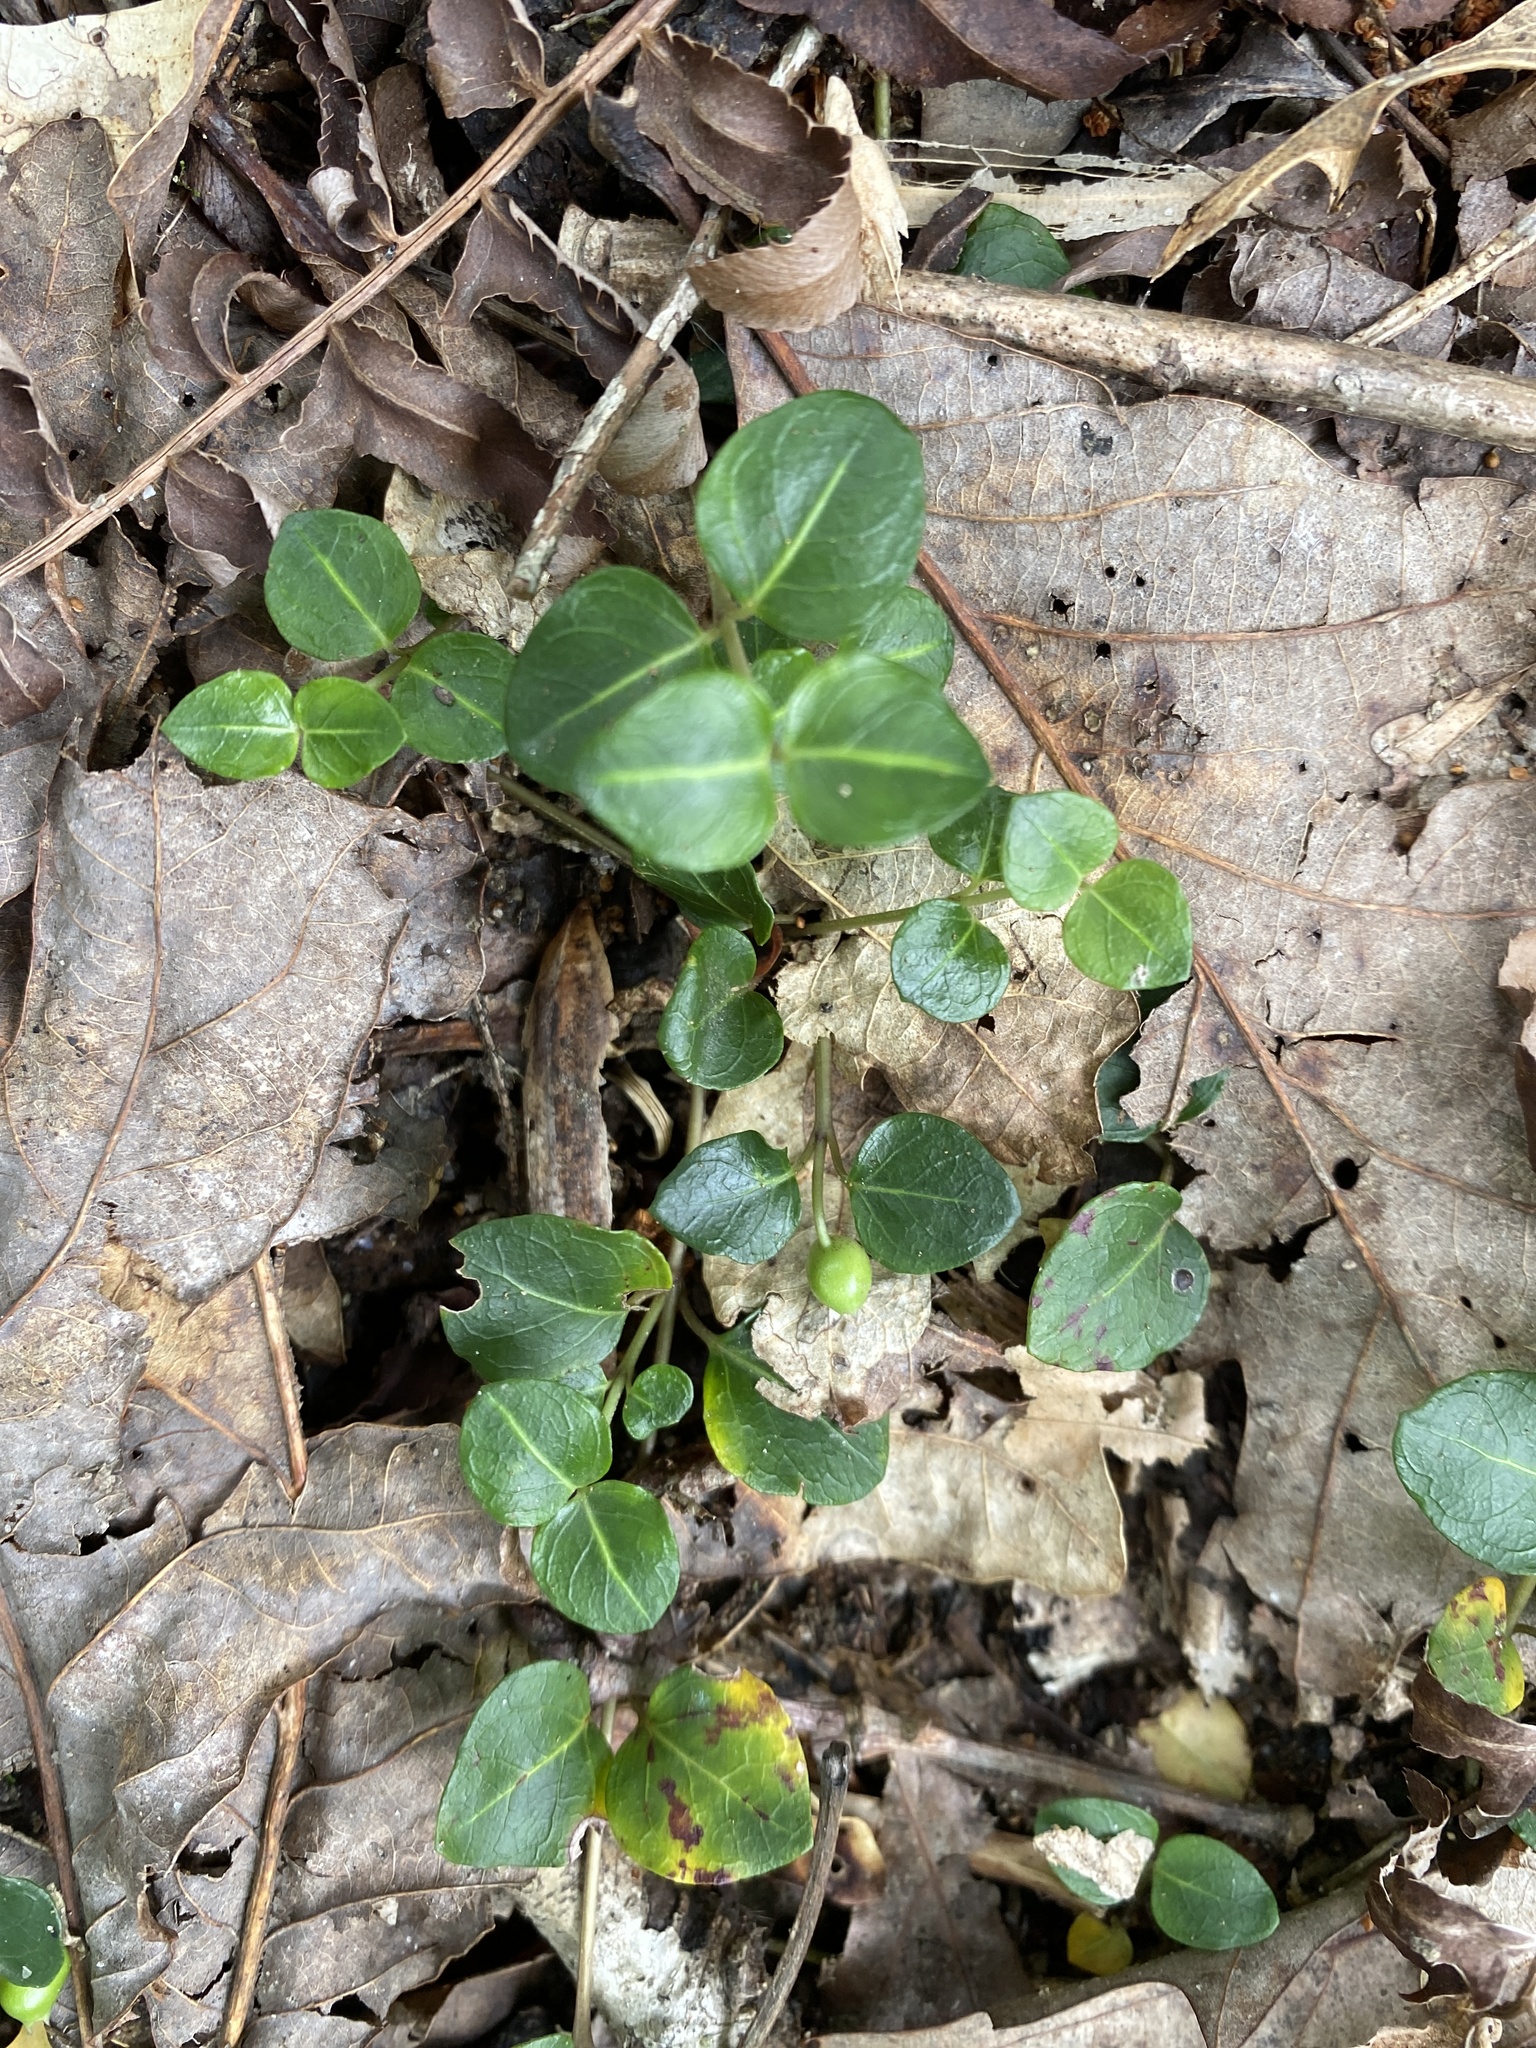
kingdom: Plantae
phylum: Tracheophyta
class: Magnoliopsida
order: Gentianales
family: Rubiaceae
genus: Mitchella
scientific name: Mitchella repens
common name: Partridge-berry
